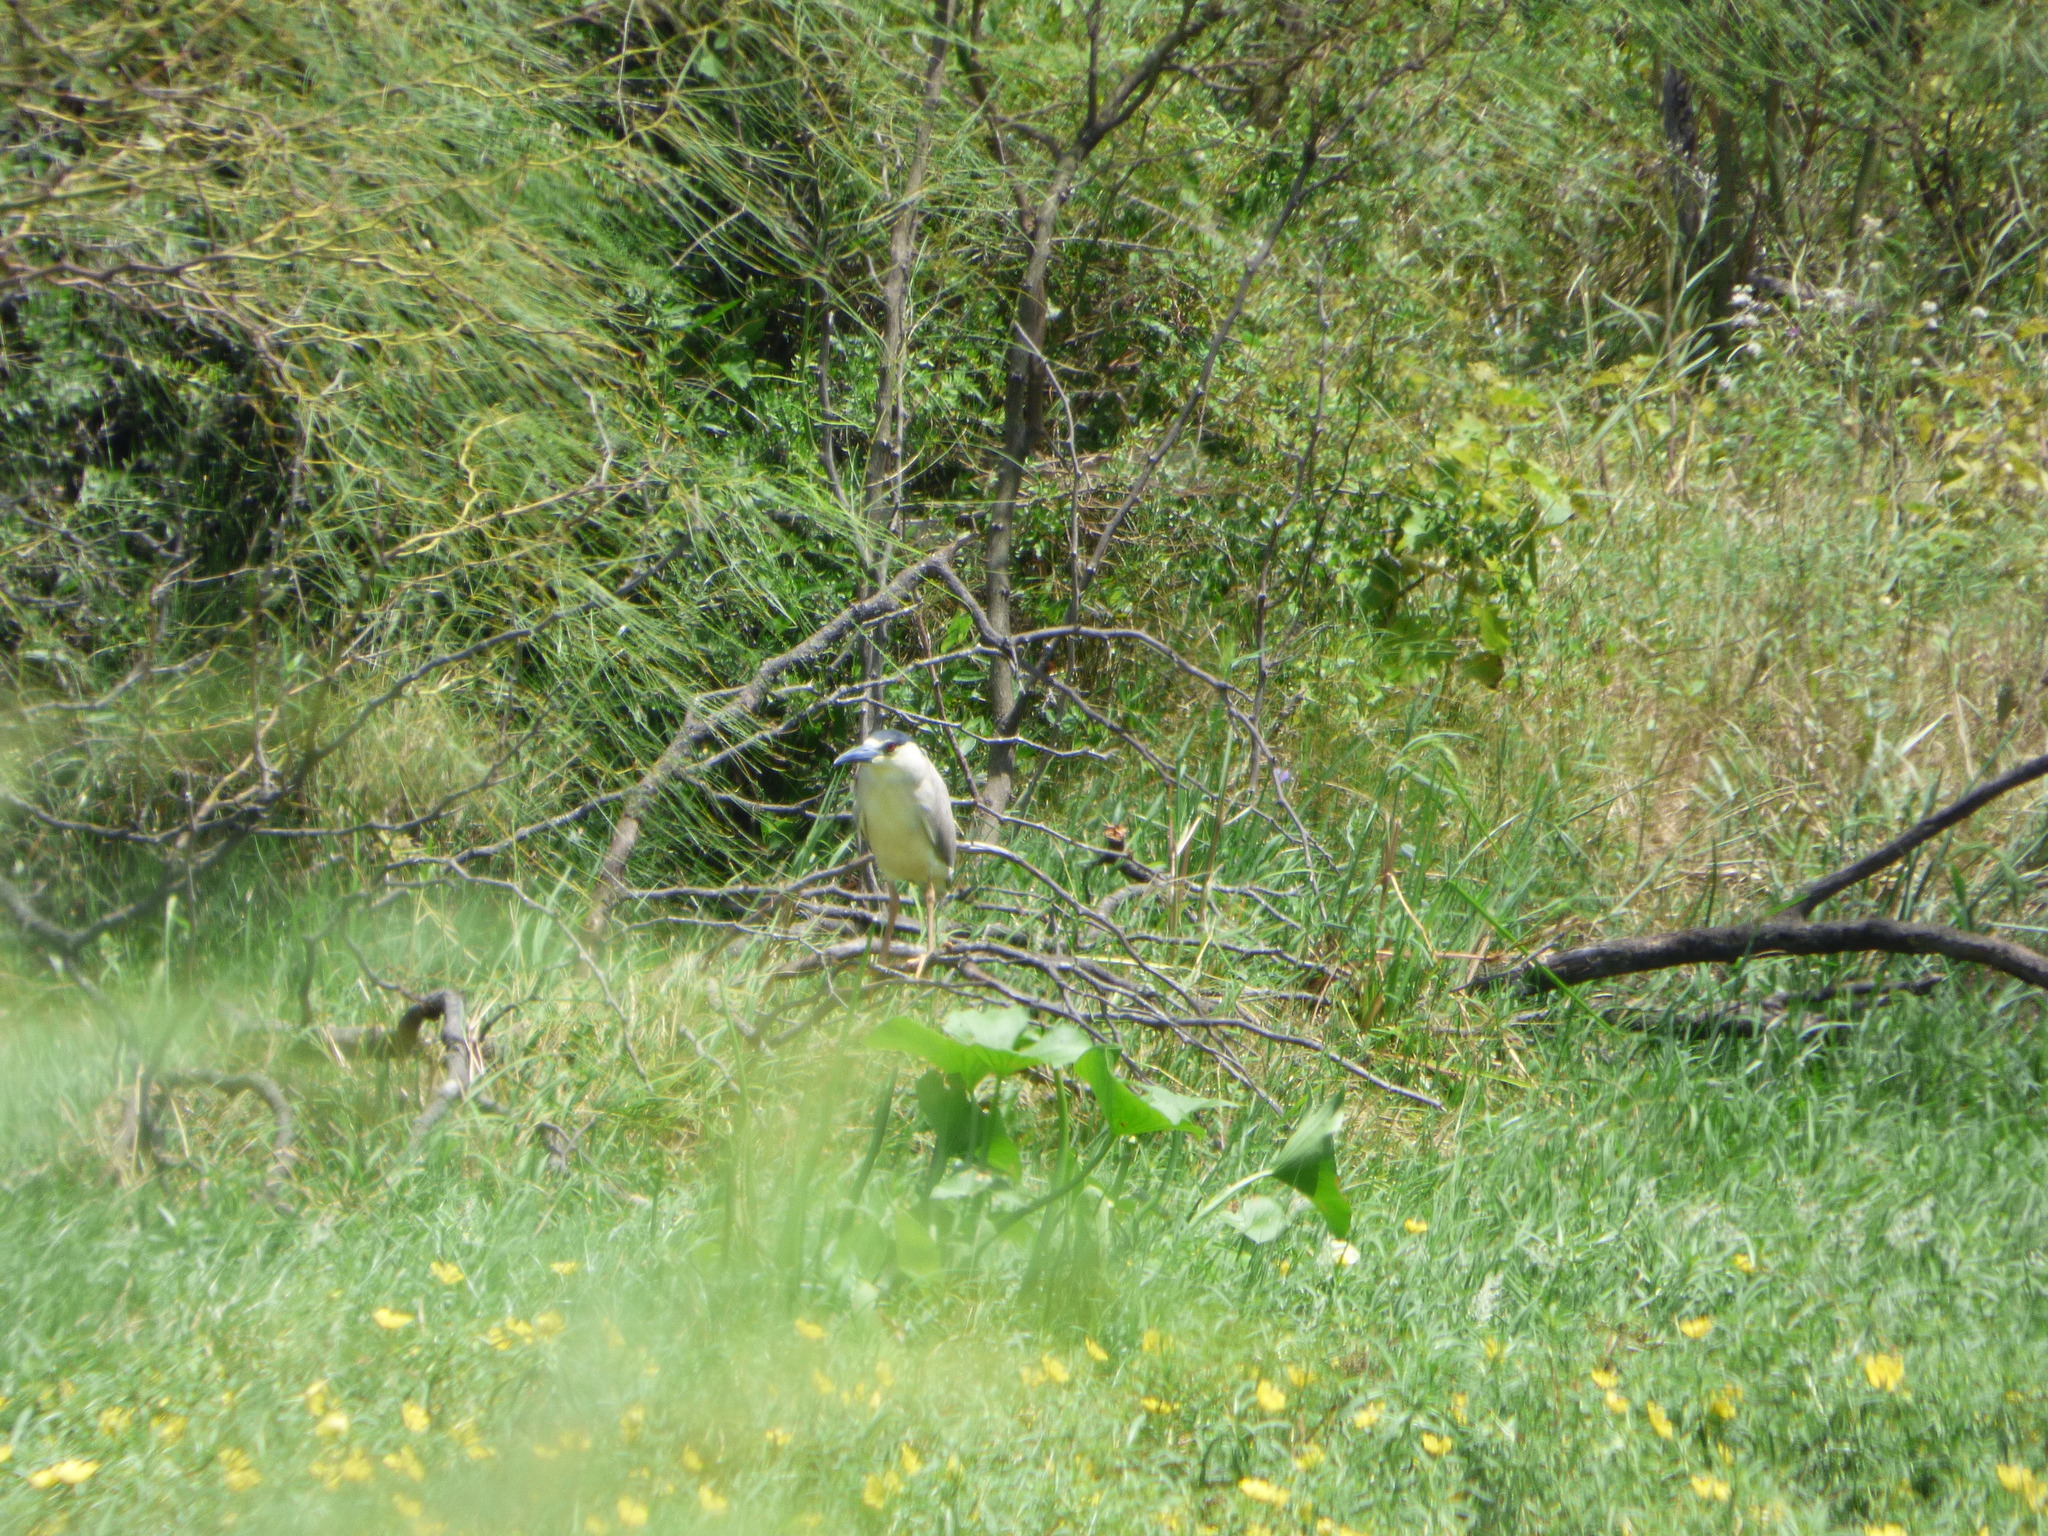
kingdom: Animalia
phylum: Chordata
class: Aves
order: Pelecaniformes
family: Ardeidae
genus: Nycticorax
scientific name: Nycticorax nycticorax
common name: Black-crowned night heron
